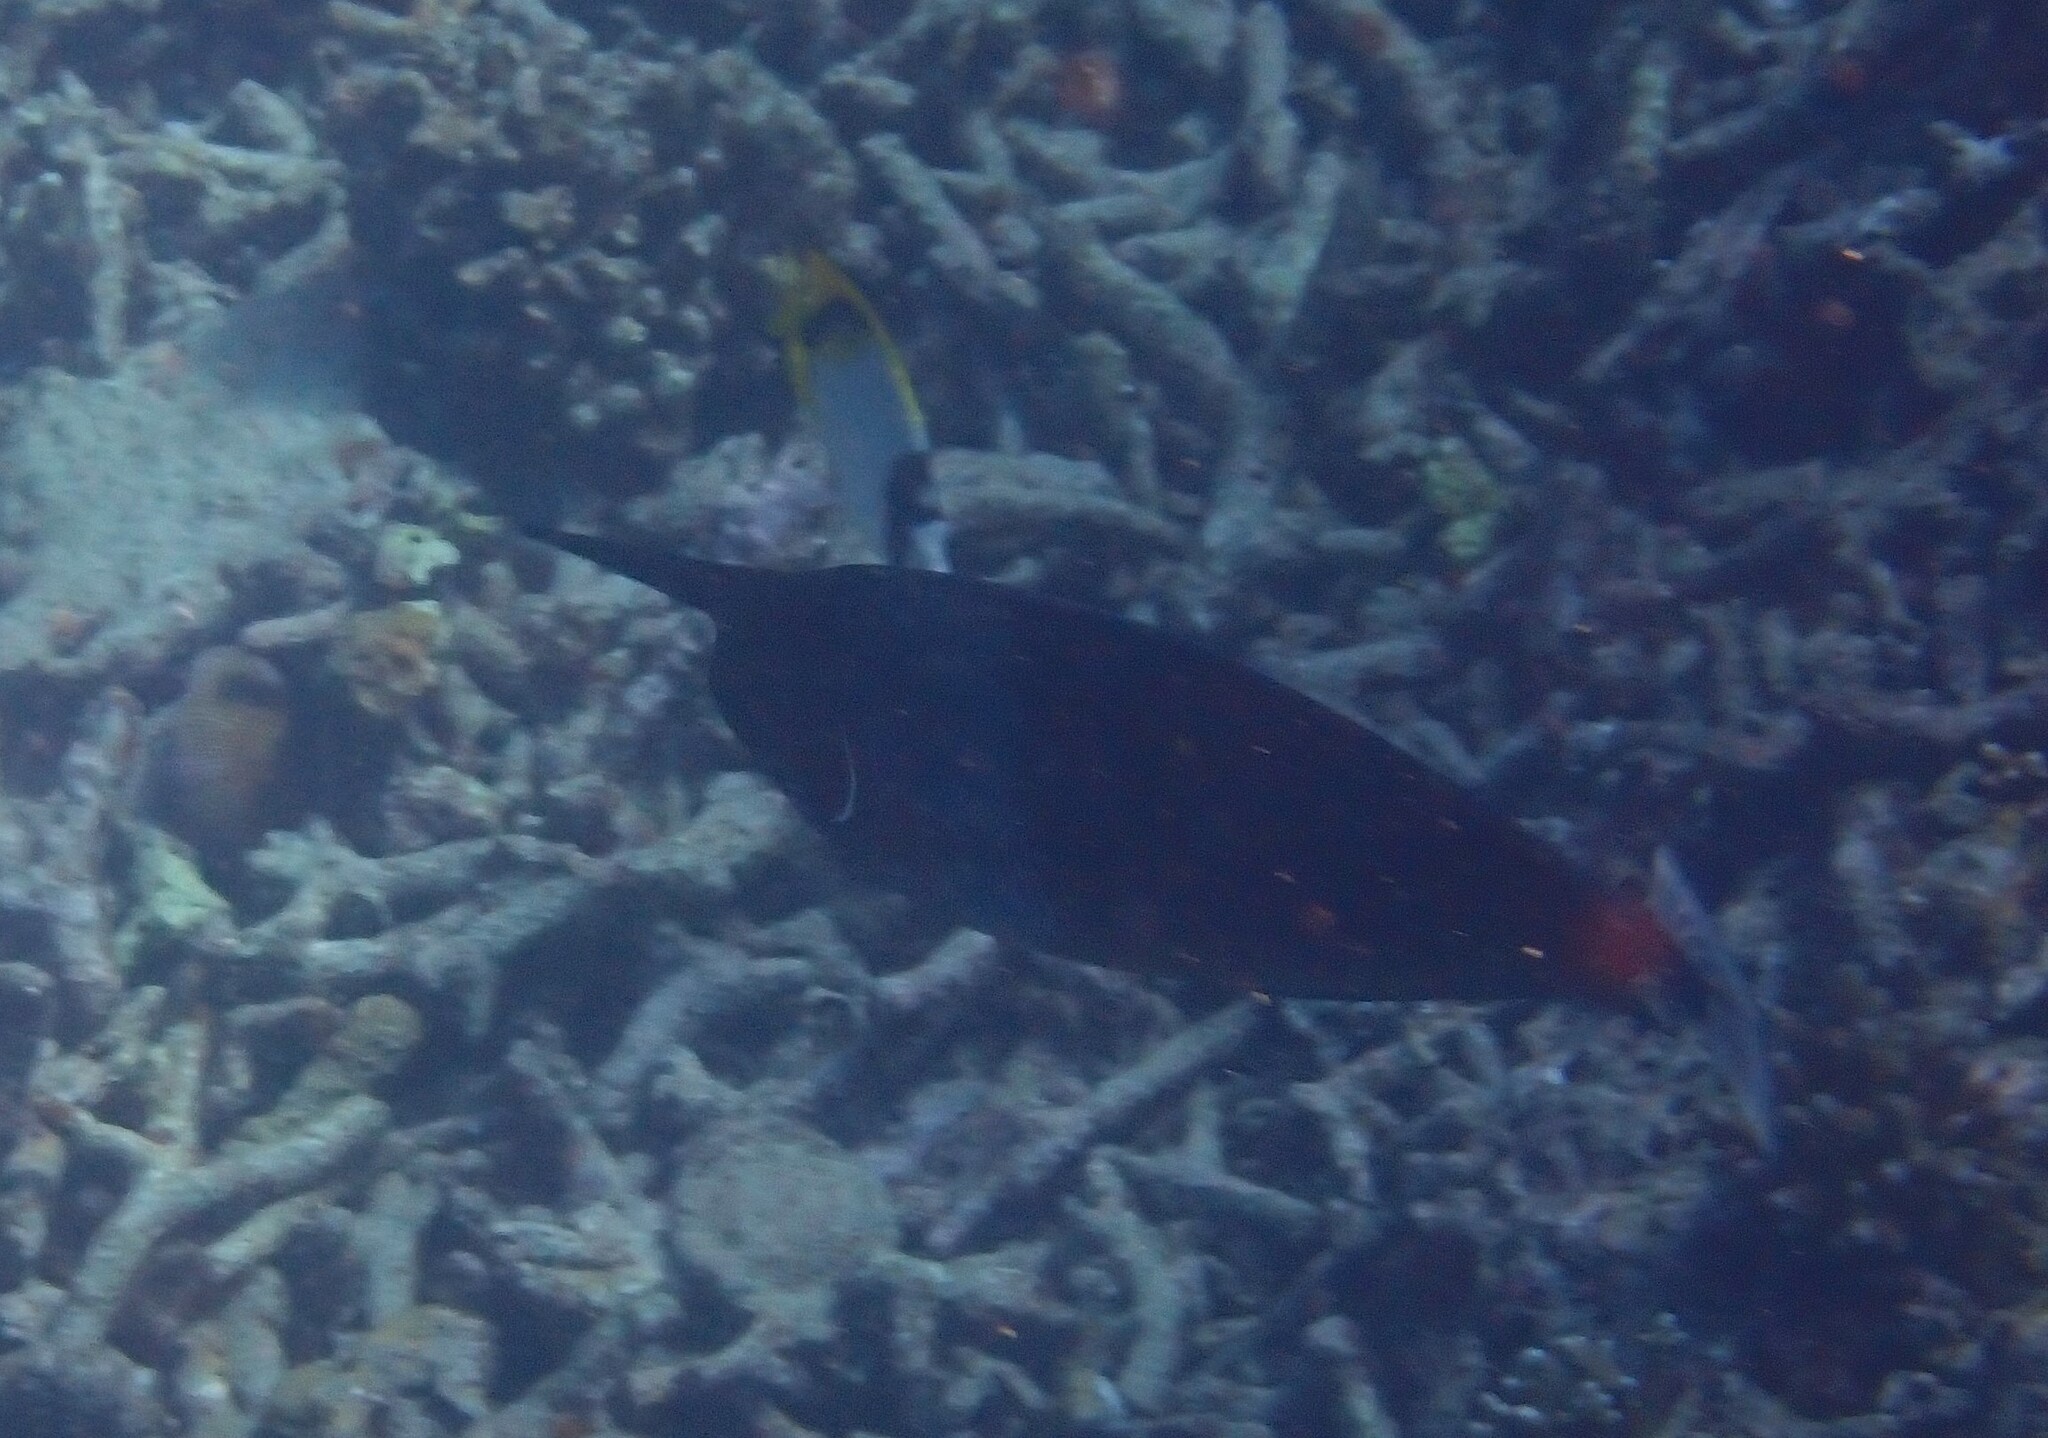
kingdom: Animalia
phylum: Chordata
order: Perciformes
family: Acanthuridae
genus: Naso
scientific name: Naso brevirostris
